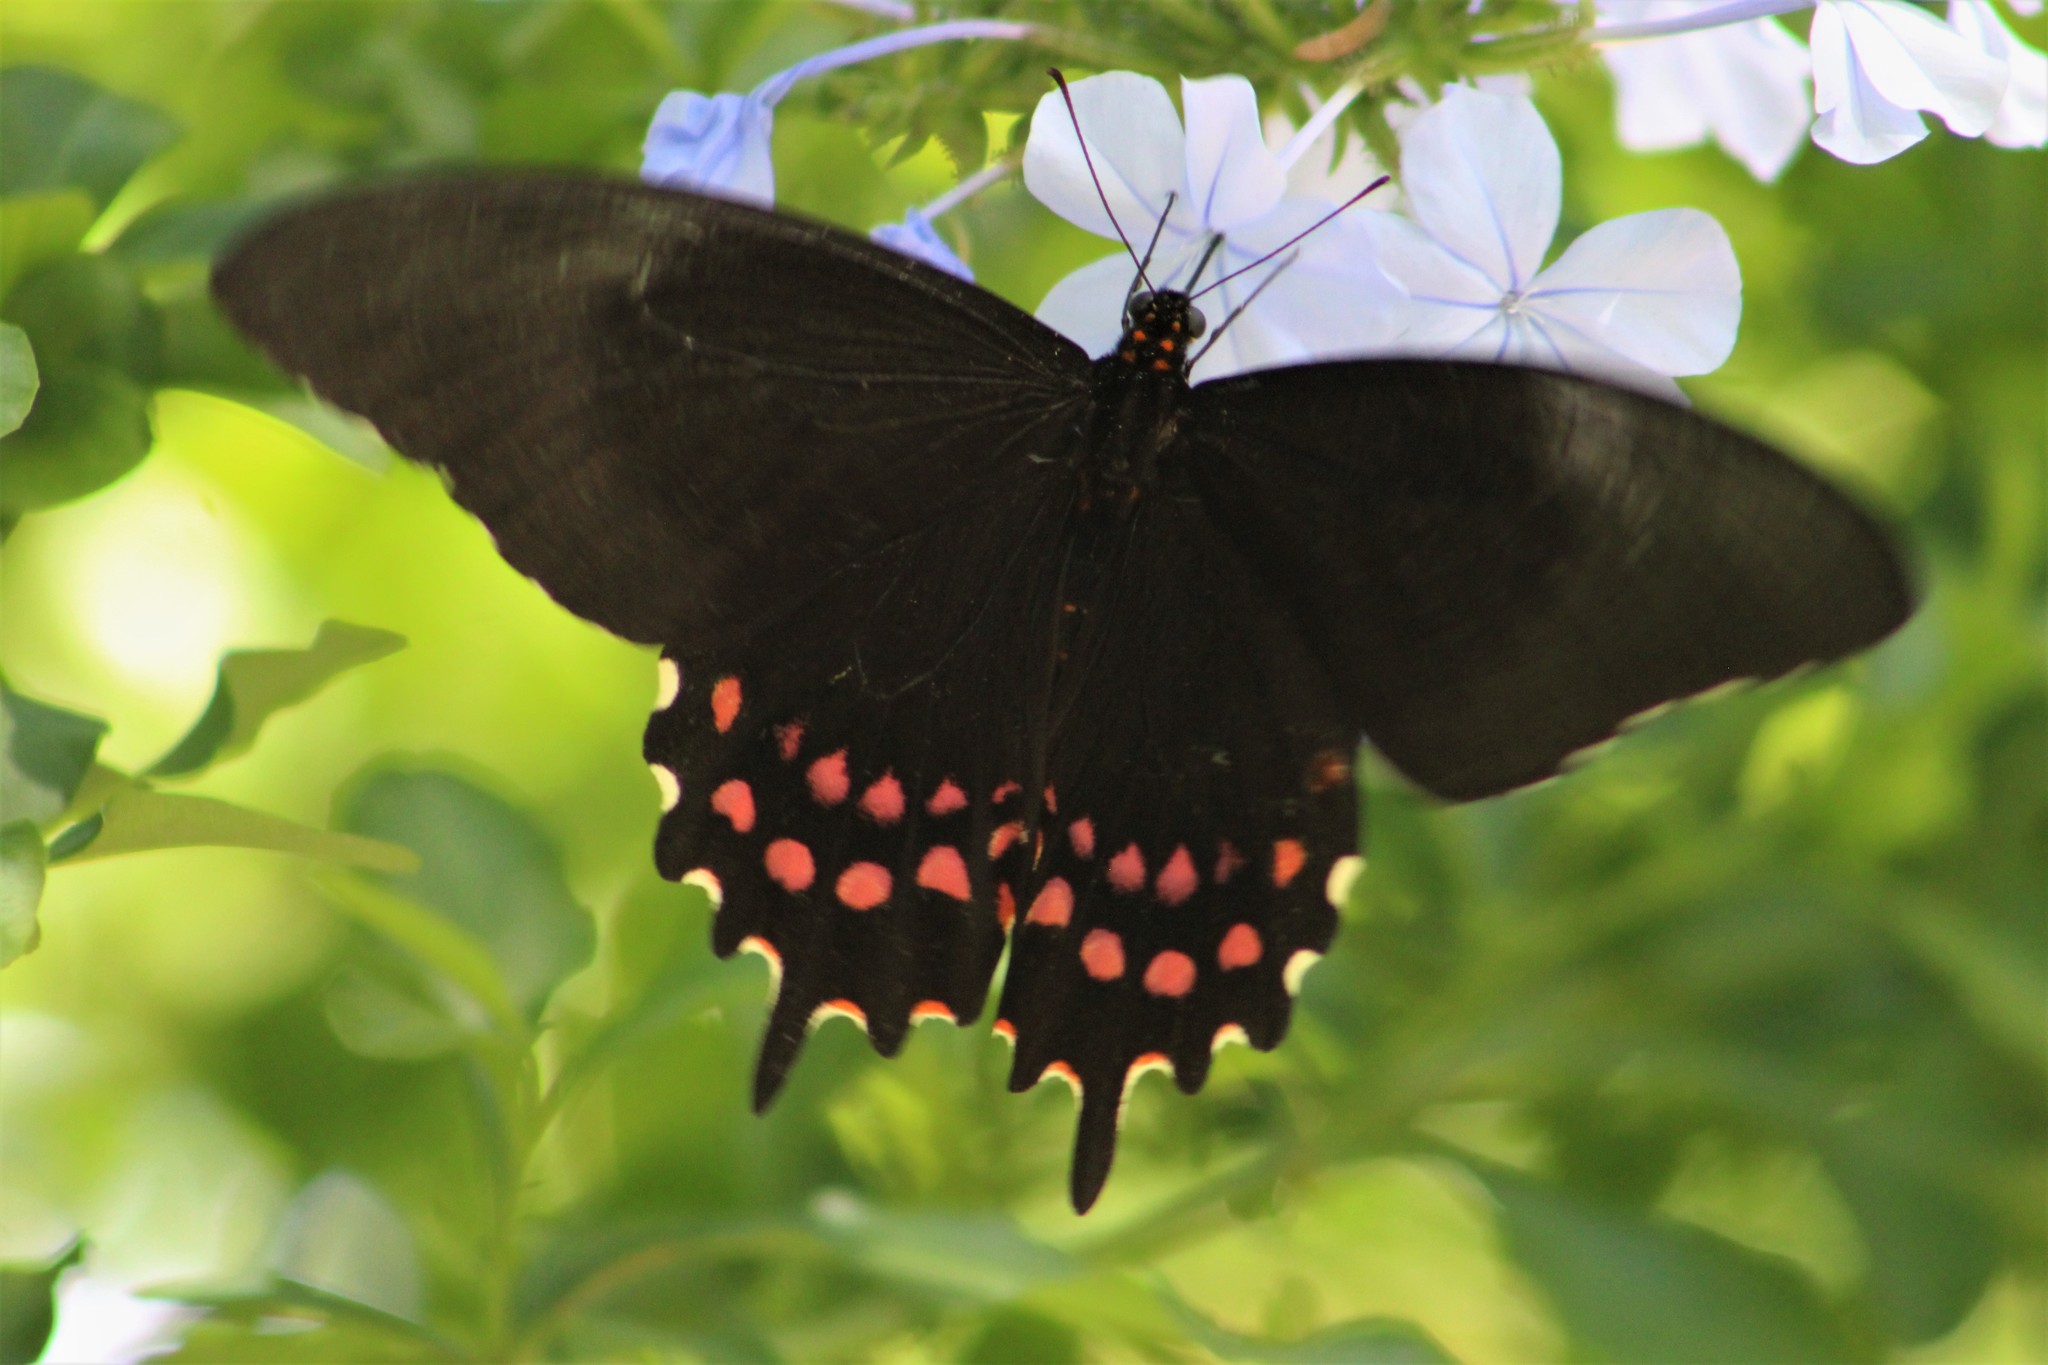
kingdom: Animalia
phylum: Arthropoda
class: Insecta
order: Lepidoptera
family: Papilionidae
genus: Heraclides
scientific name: Heraclides rogeri
